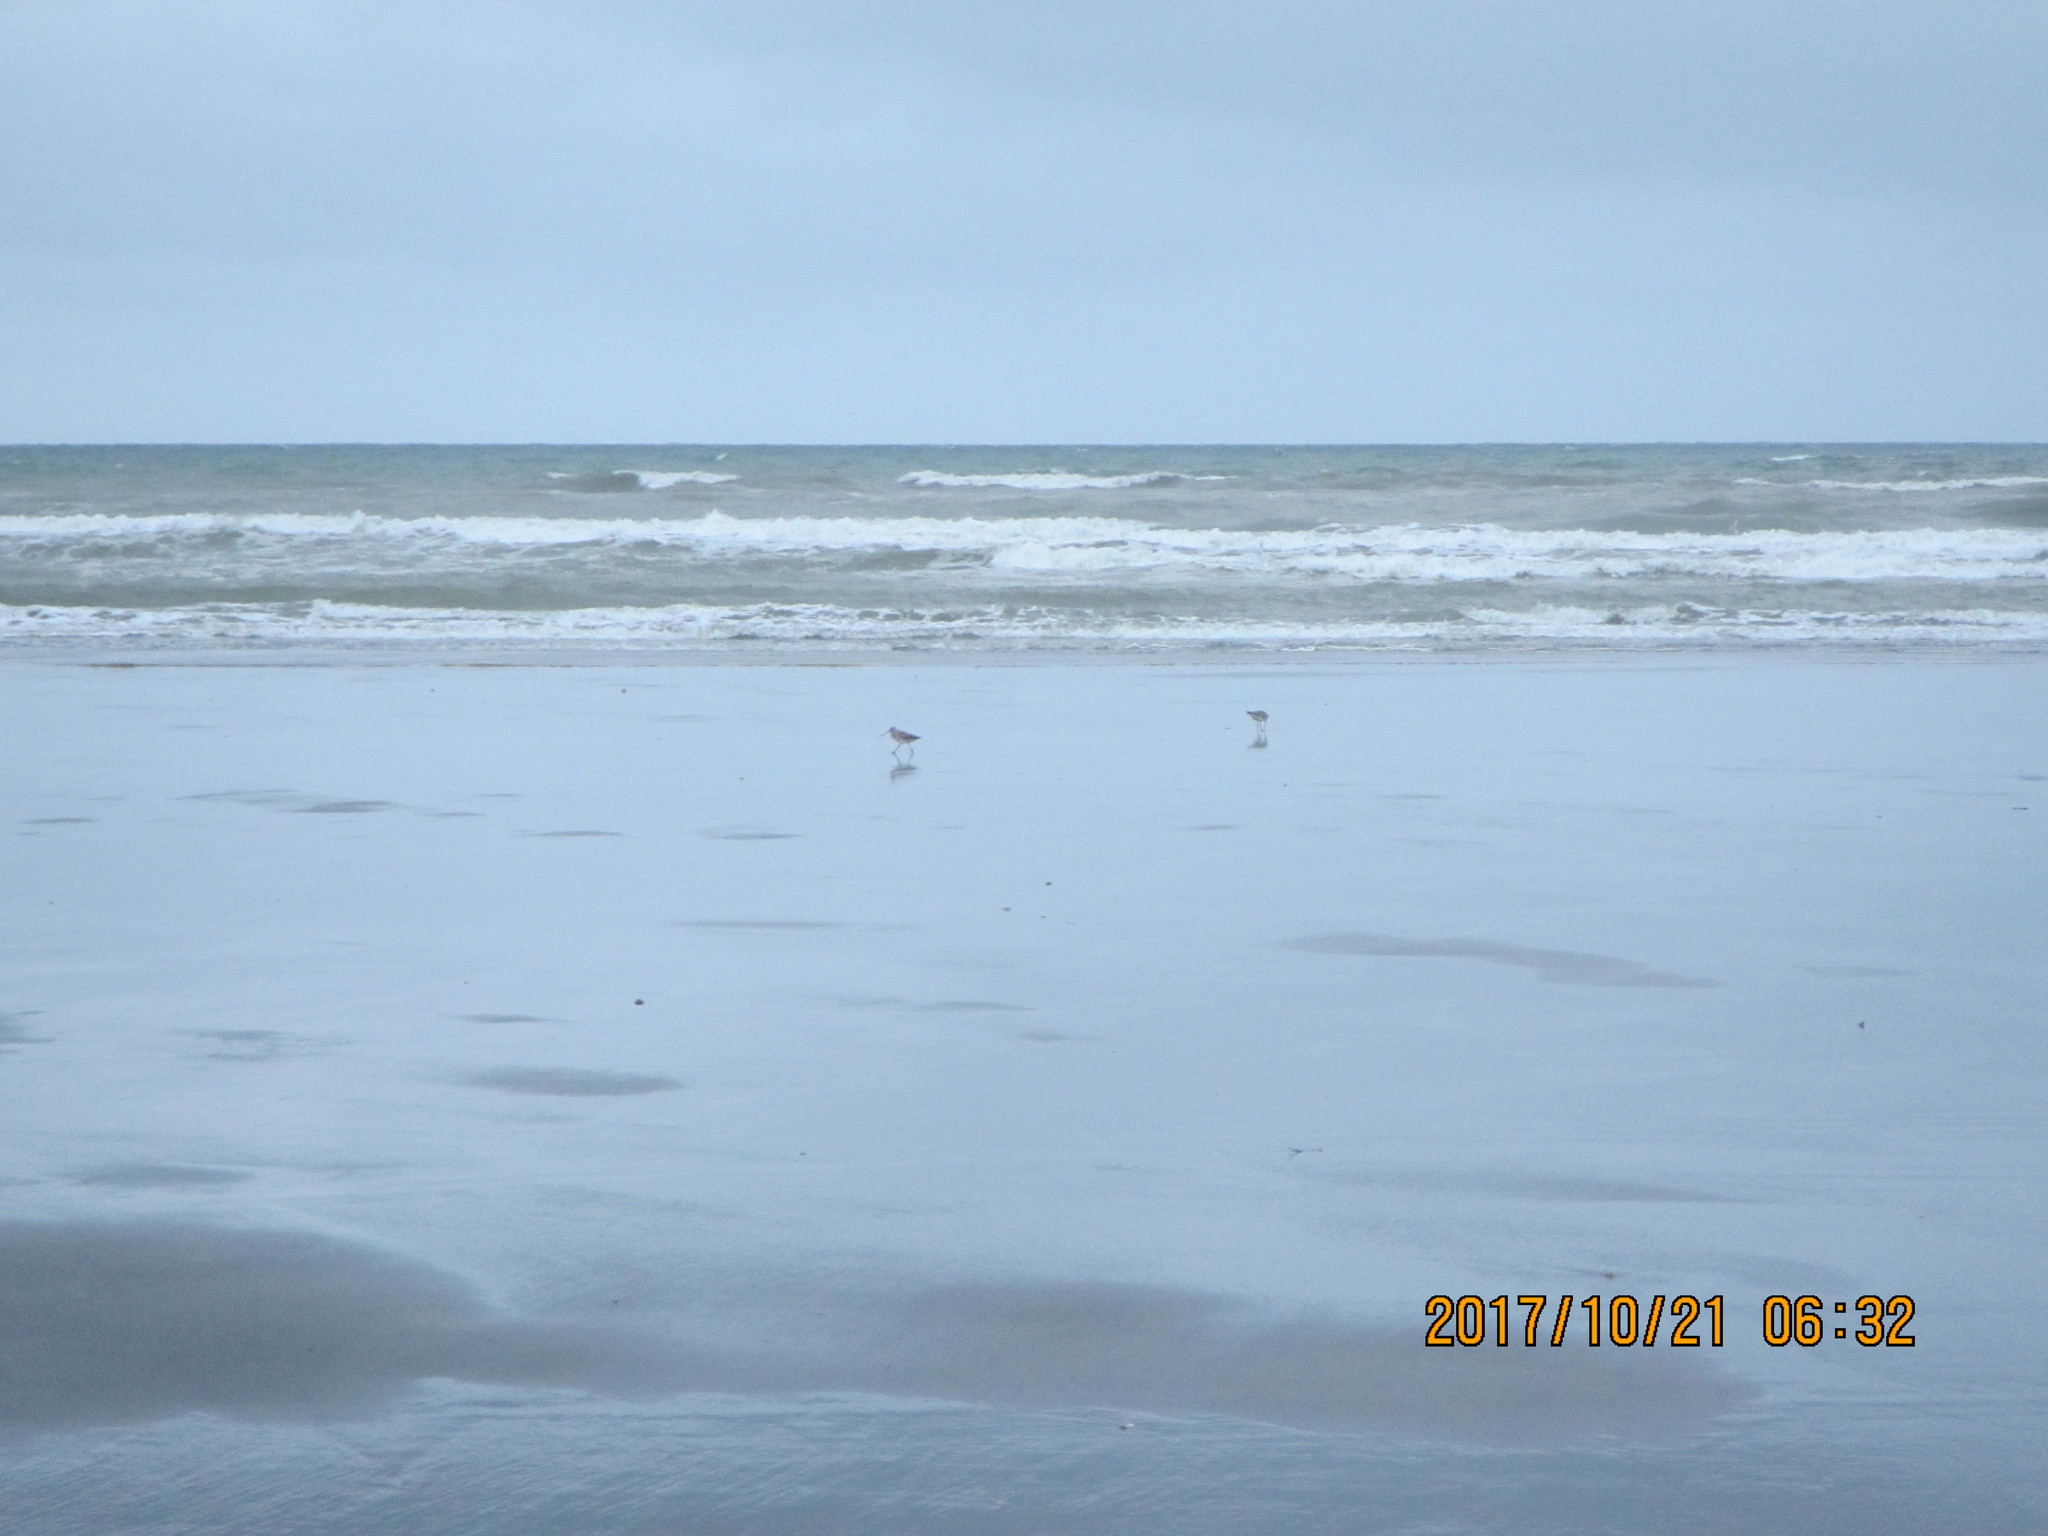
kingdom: Animalia
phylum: Chordata
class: Aves
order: Charadriiformes
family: Scolopacidae
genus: Limosa
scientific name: Limosa lapponica
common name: Bar-tailed godwit
